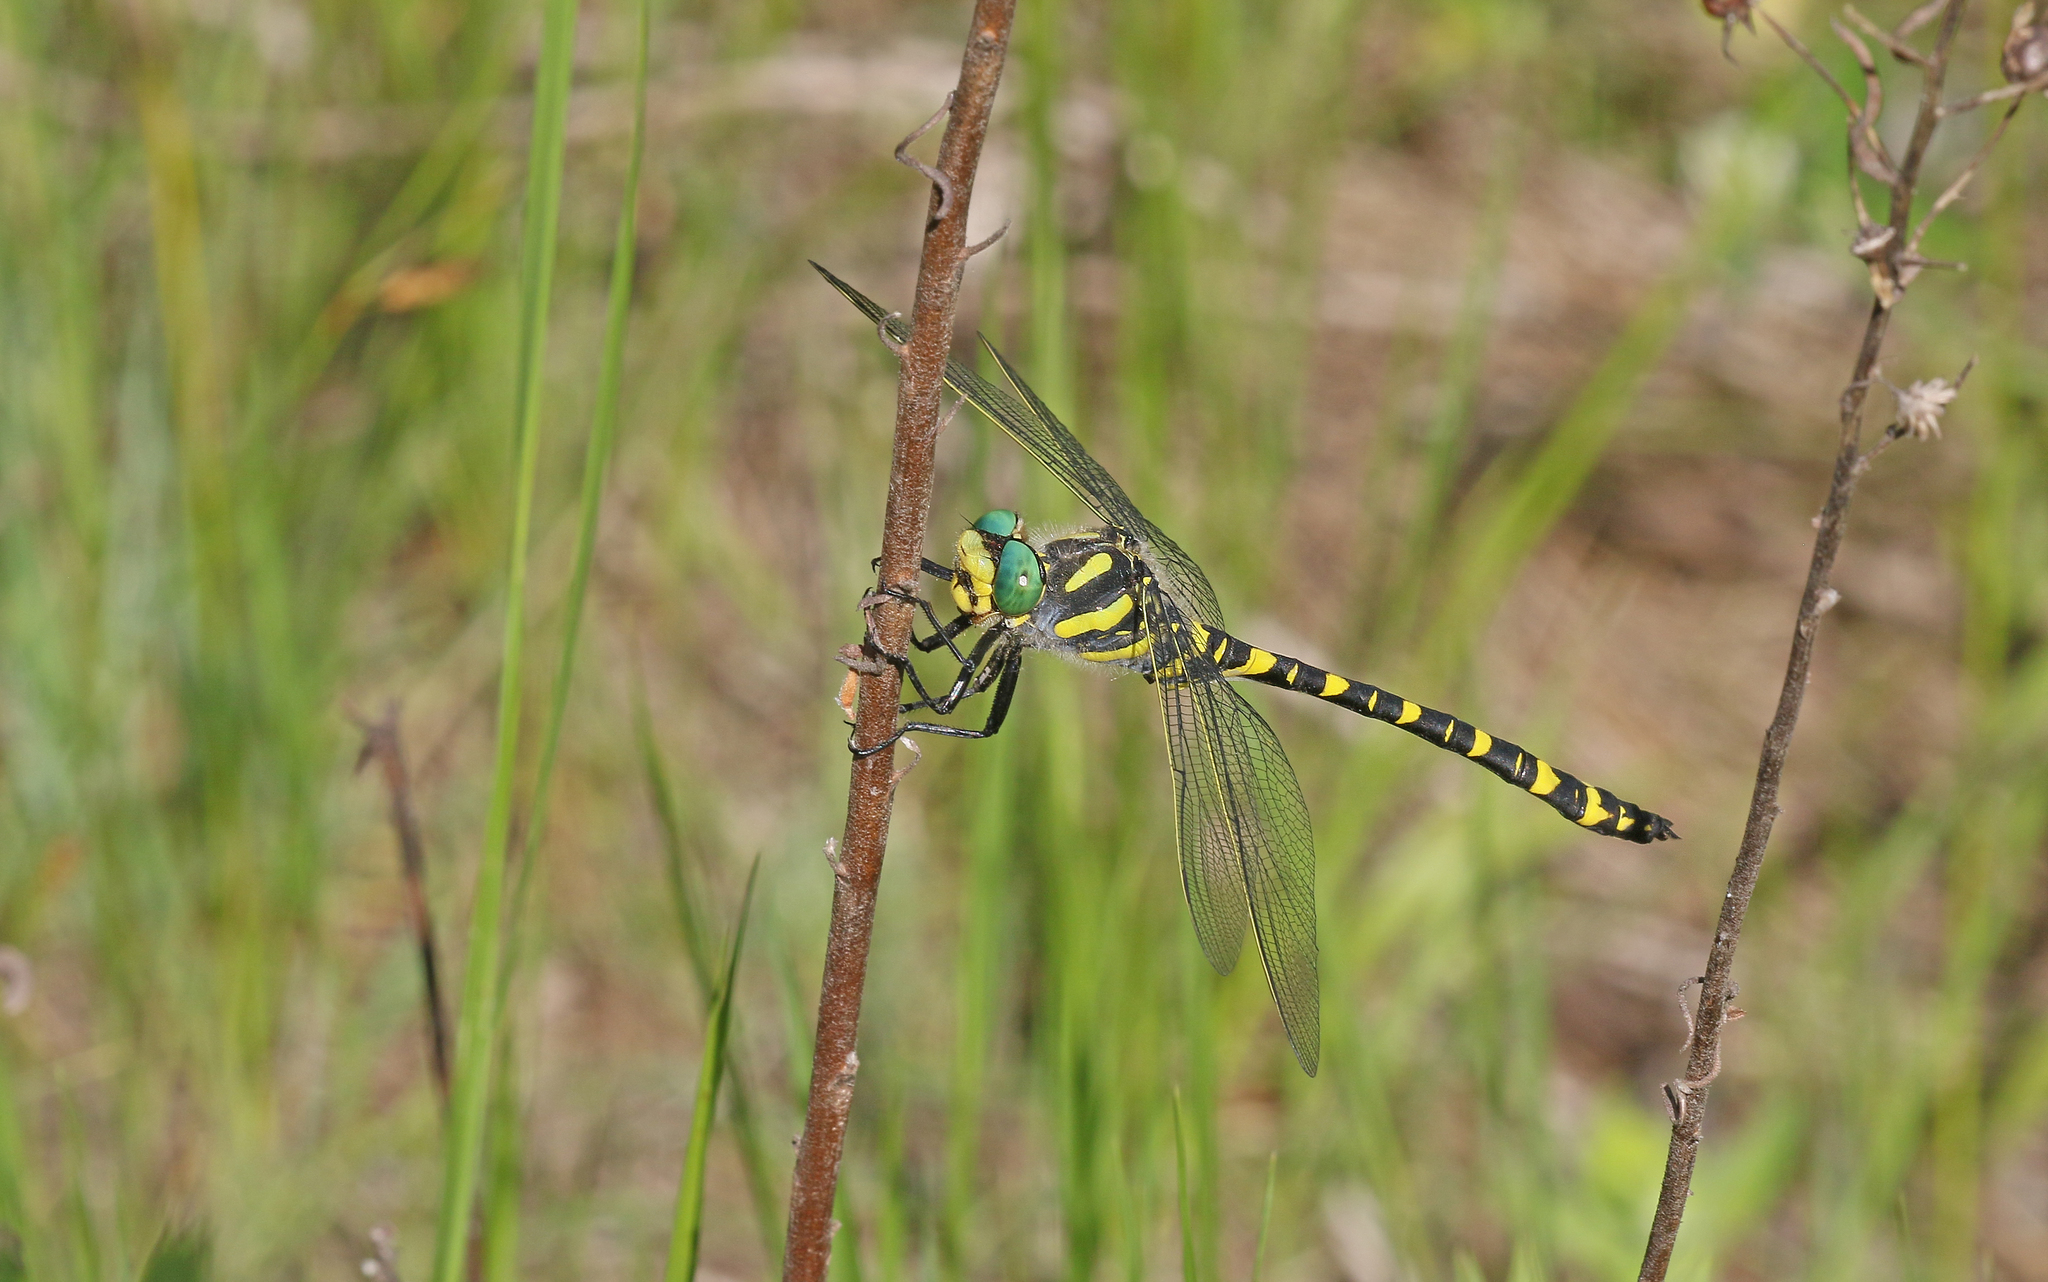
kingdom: Animalia
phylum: Arthropoda
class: Insecta
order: Odonata
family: Cordulegastridae
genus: Cordulegaster
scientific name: Cordulegaster boltonii
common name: Golden-ringed dragonfly
